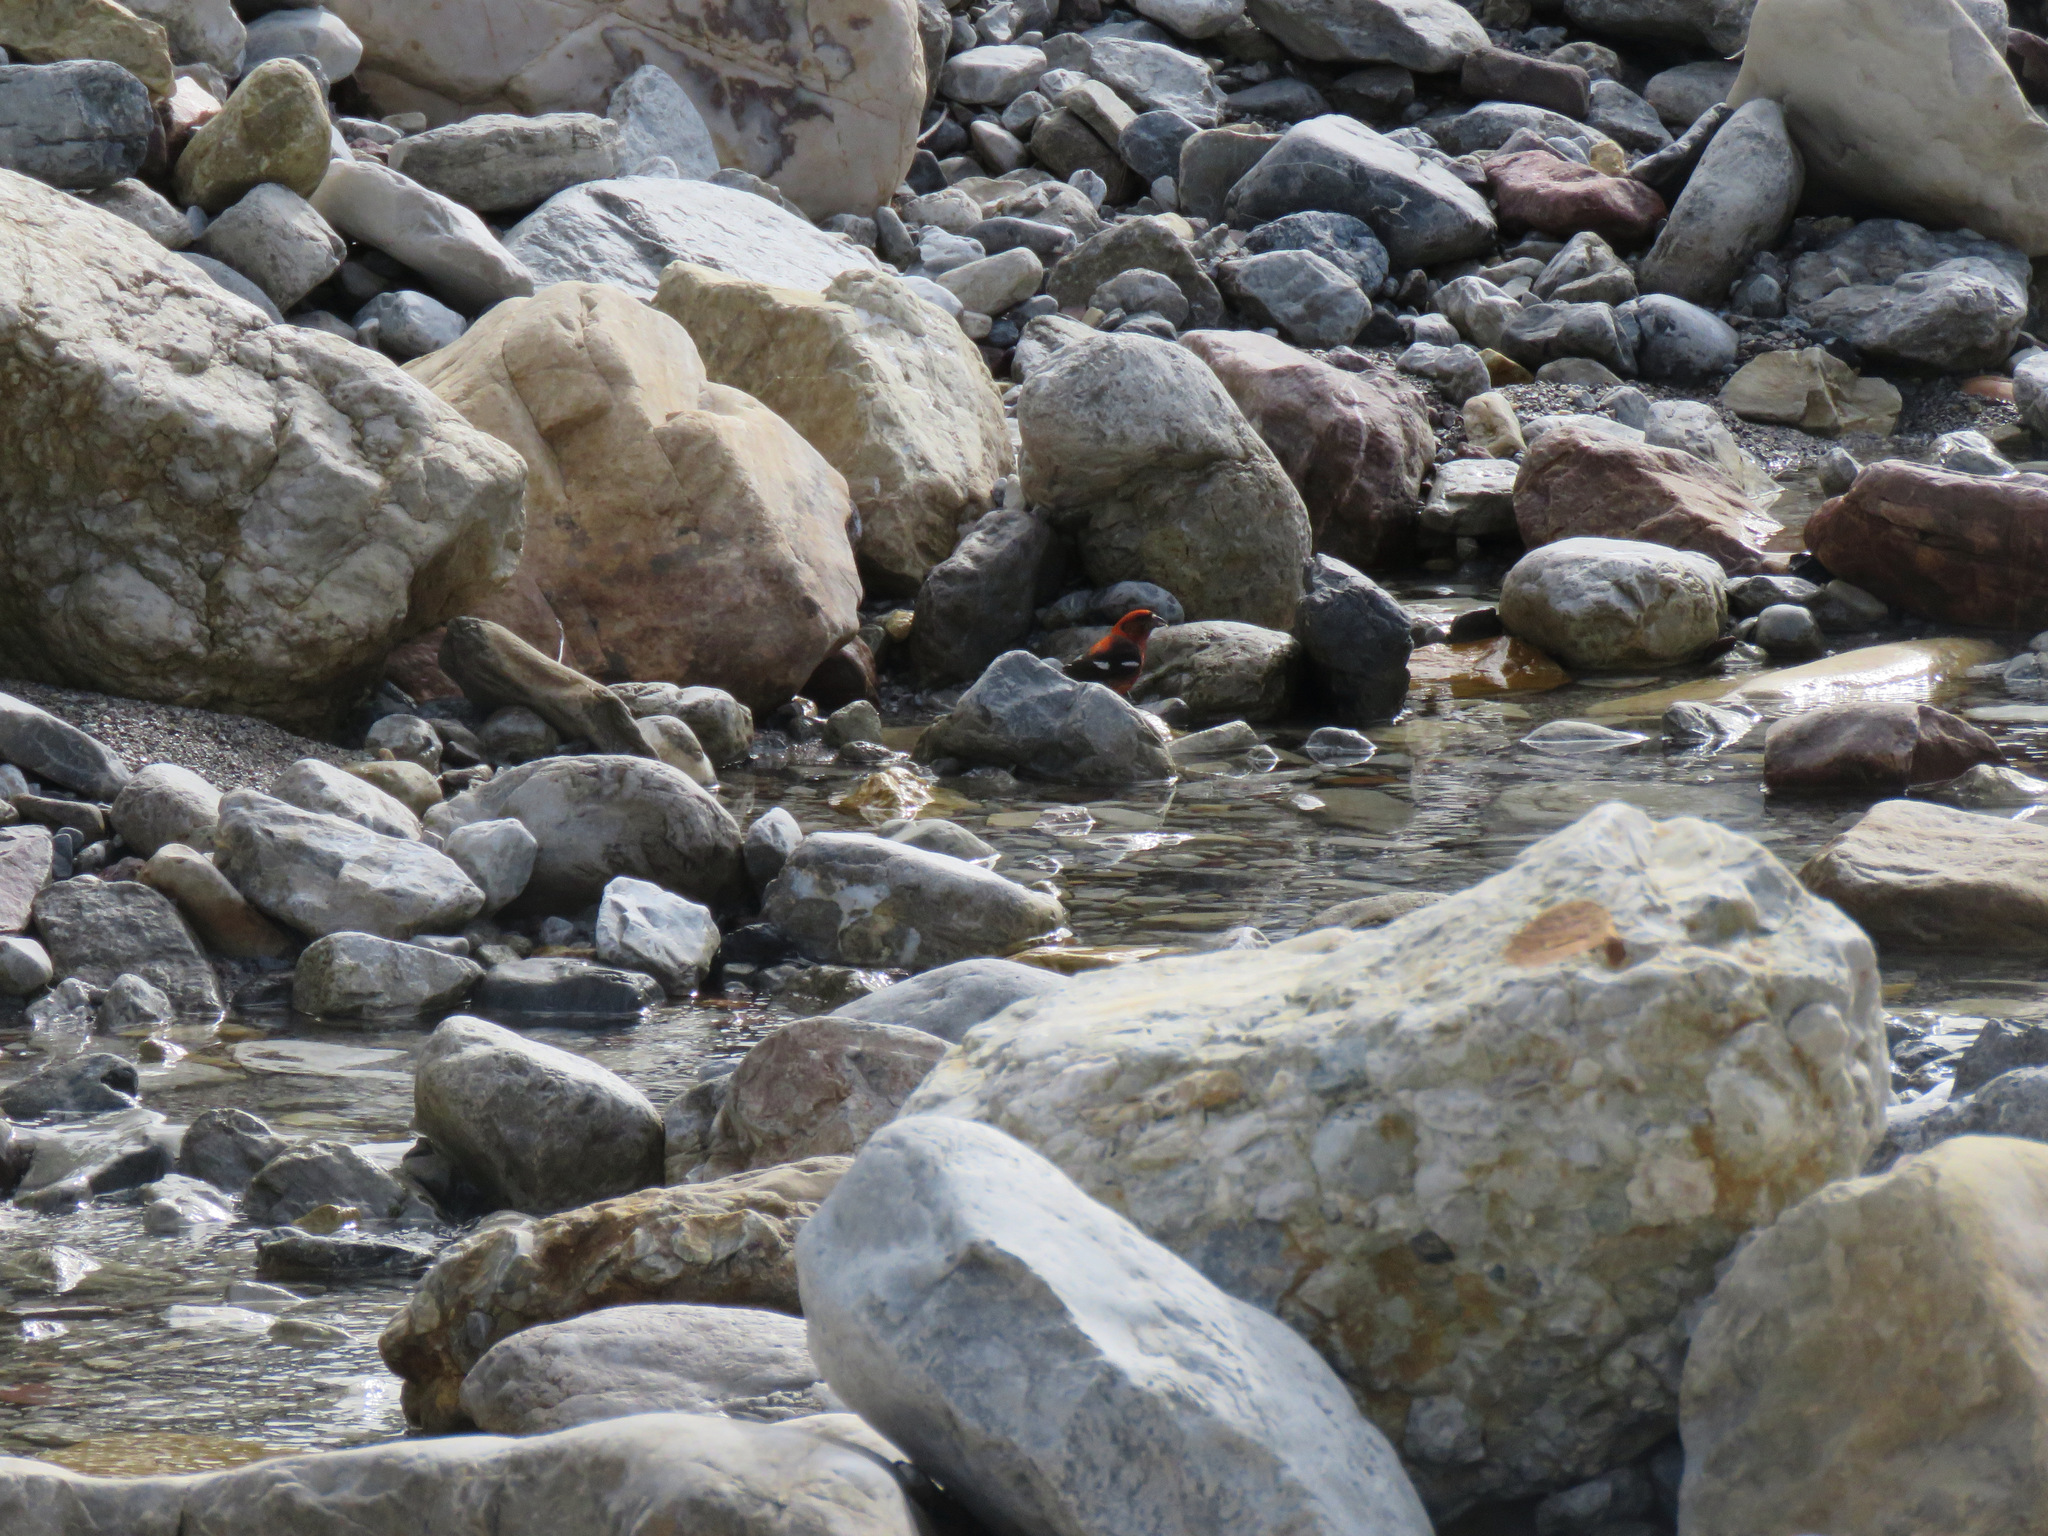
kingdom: Animalia
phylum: Chordata
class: Aves
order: Passeriformes
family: Fringillidae
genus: Loxia
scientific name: Loxia leucoptera
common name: Two-barred crossbill
